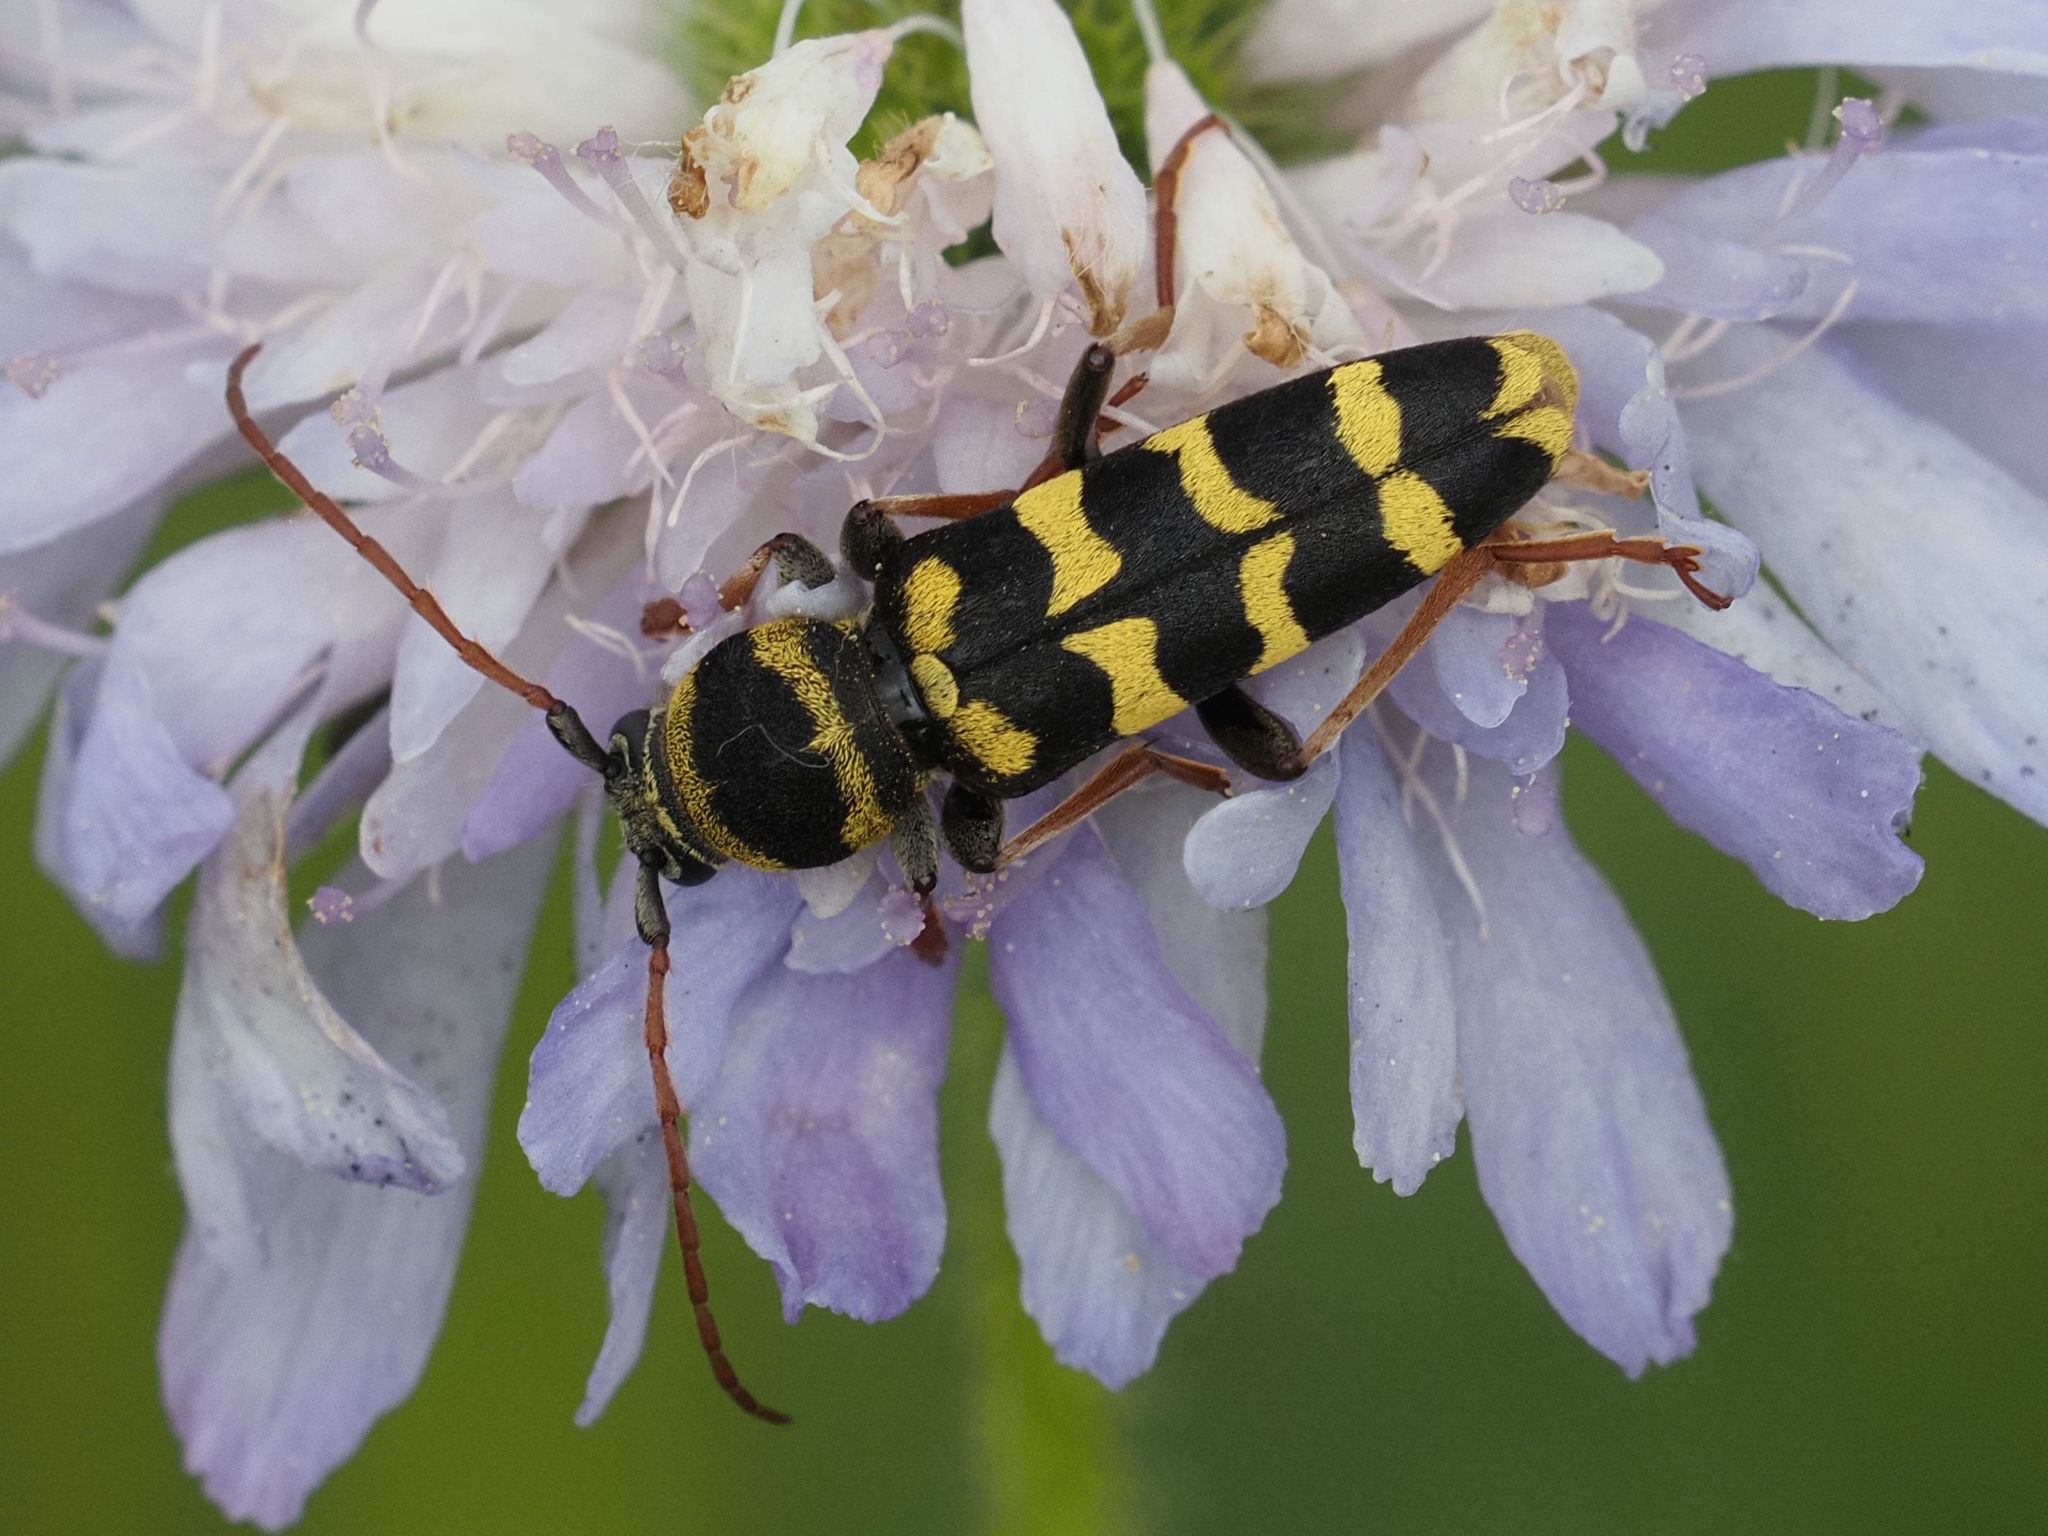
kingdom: Animalia
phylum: Arthropoda
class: Insecta
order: Coleoptera
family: Cerambycidae
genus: Plagionotus
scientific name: Plagionotus floralis
